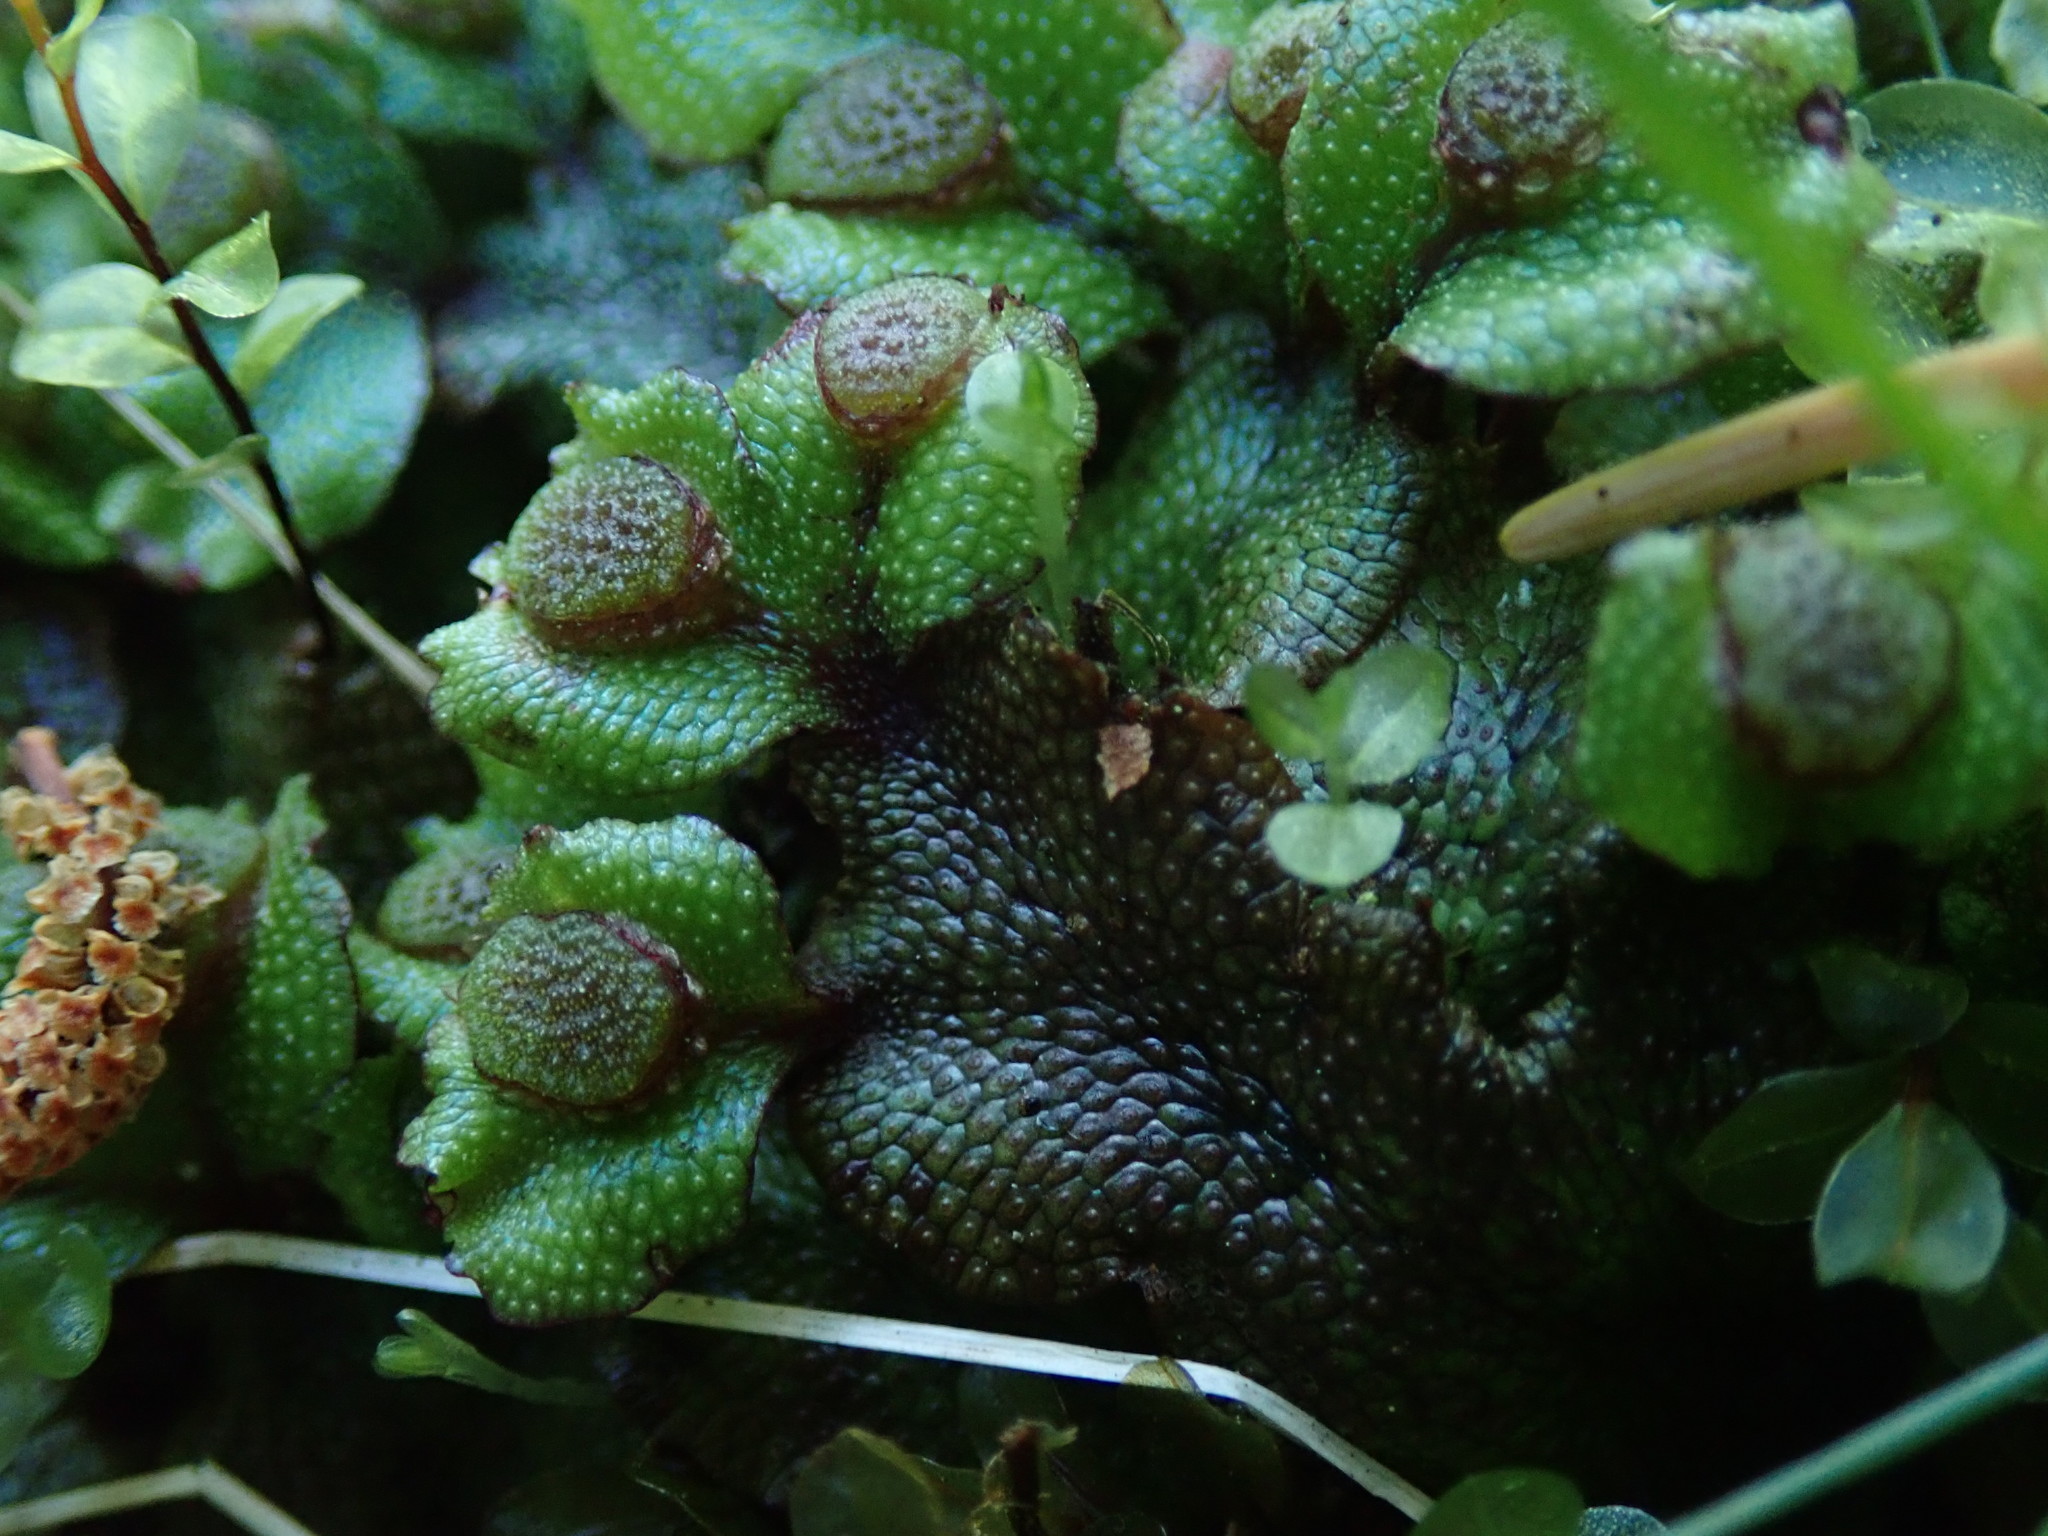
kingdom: Plantae
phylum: Marchantiophyta
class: Marchantiopsida
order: Marchantiales
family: Conocephalaceae
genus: Conocephalum
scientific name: Conocephalum salebrosum
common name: Cat-tongue liverwort
